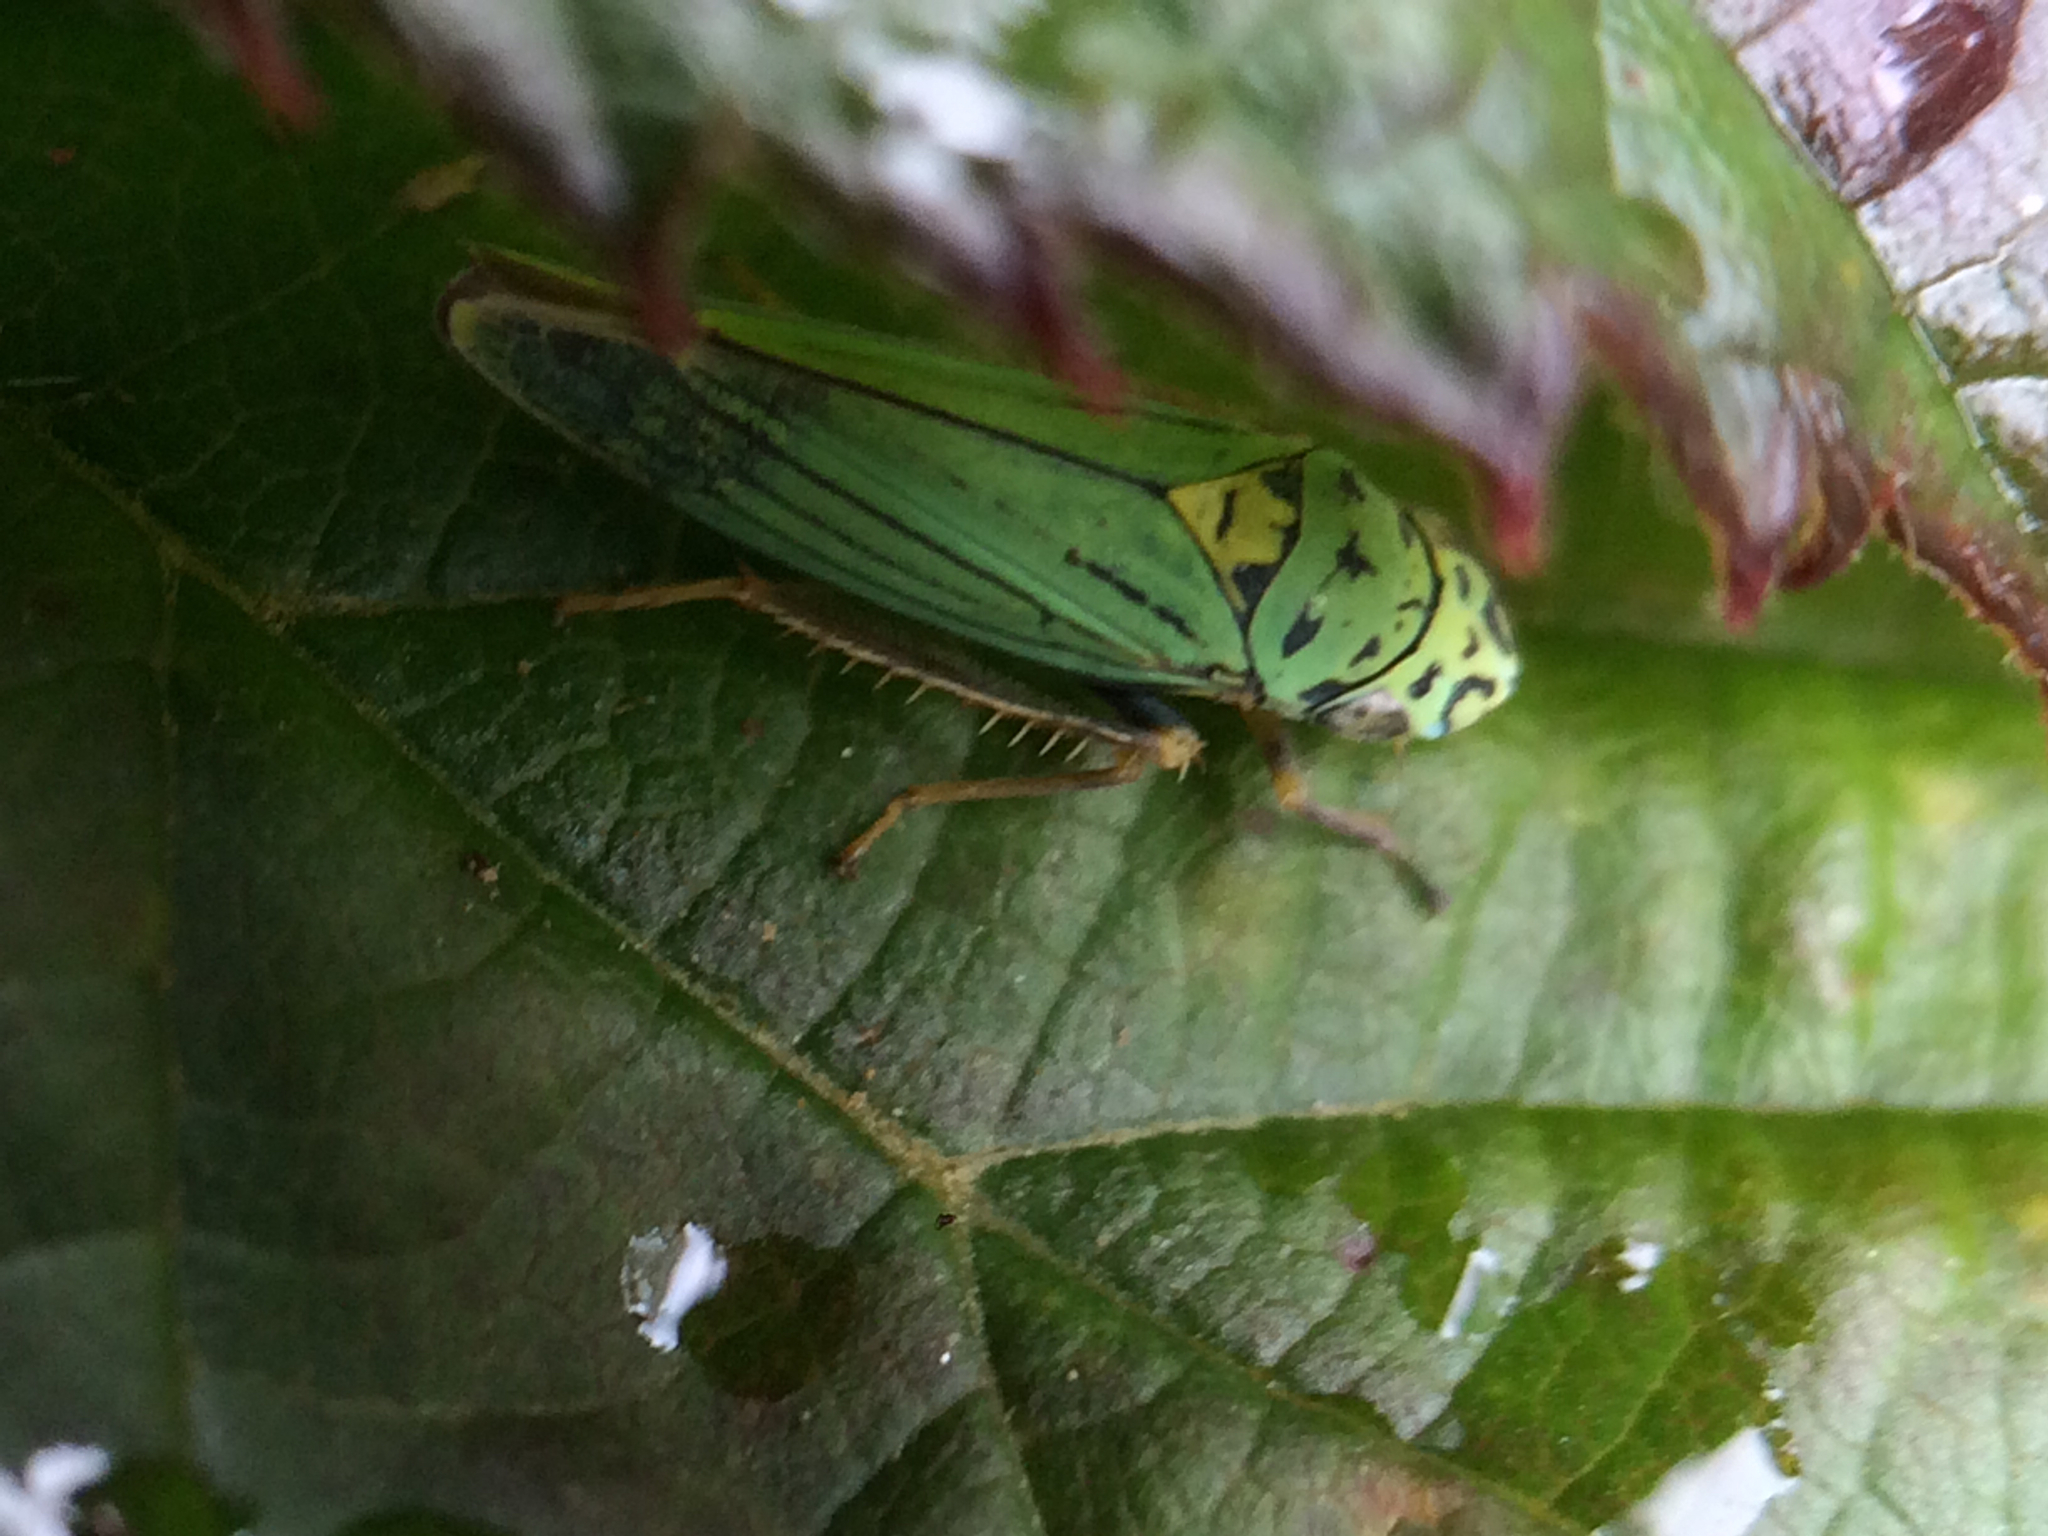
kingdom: Animalia
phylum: Arthropoda
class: Insecta
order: Hemiptera
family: Cicadellidae
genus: Graphocephala
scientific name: Graphocephala atropunctata
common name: Blue-green sharpshooter
